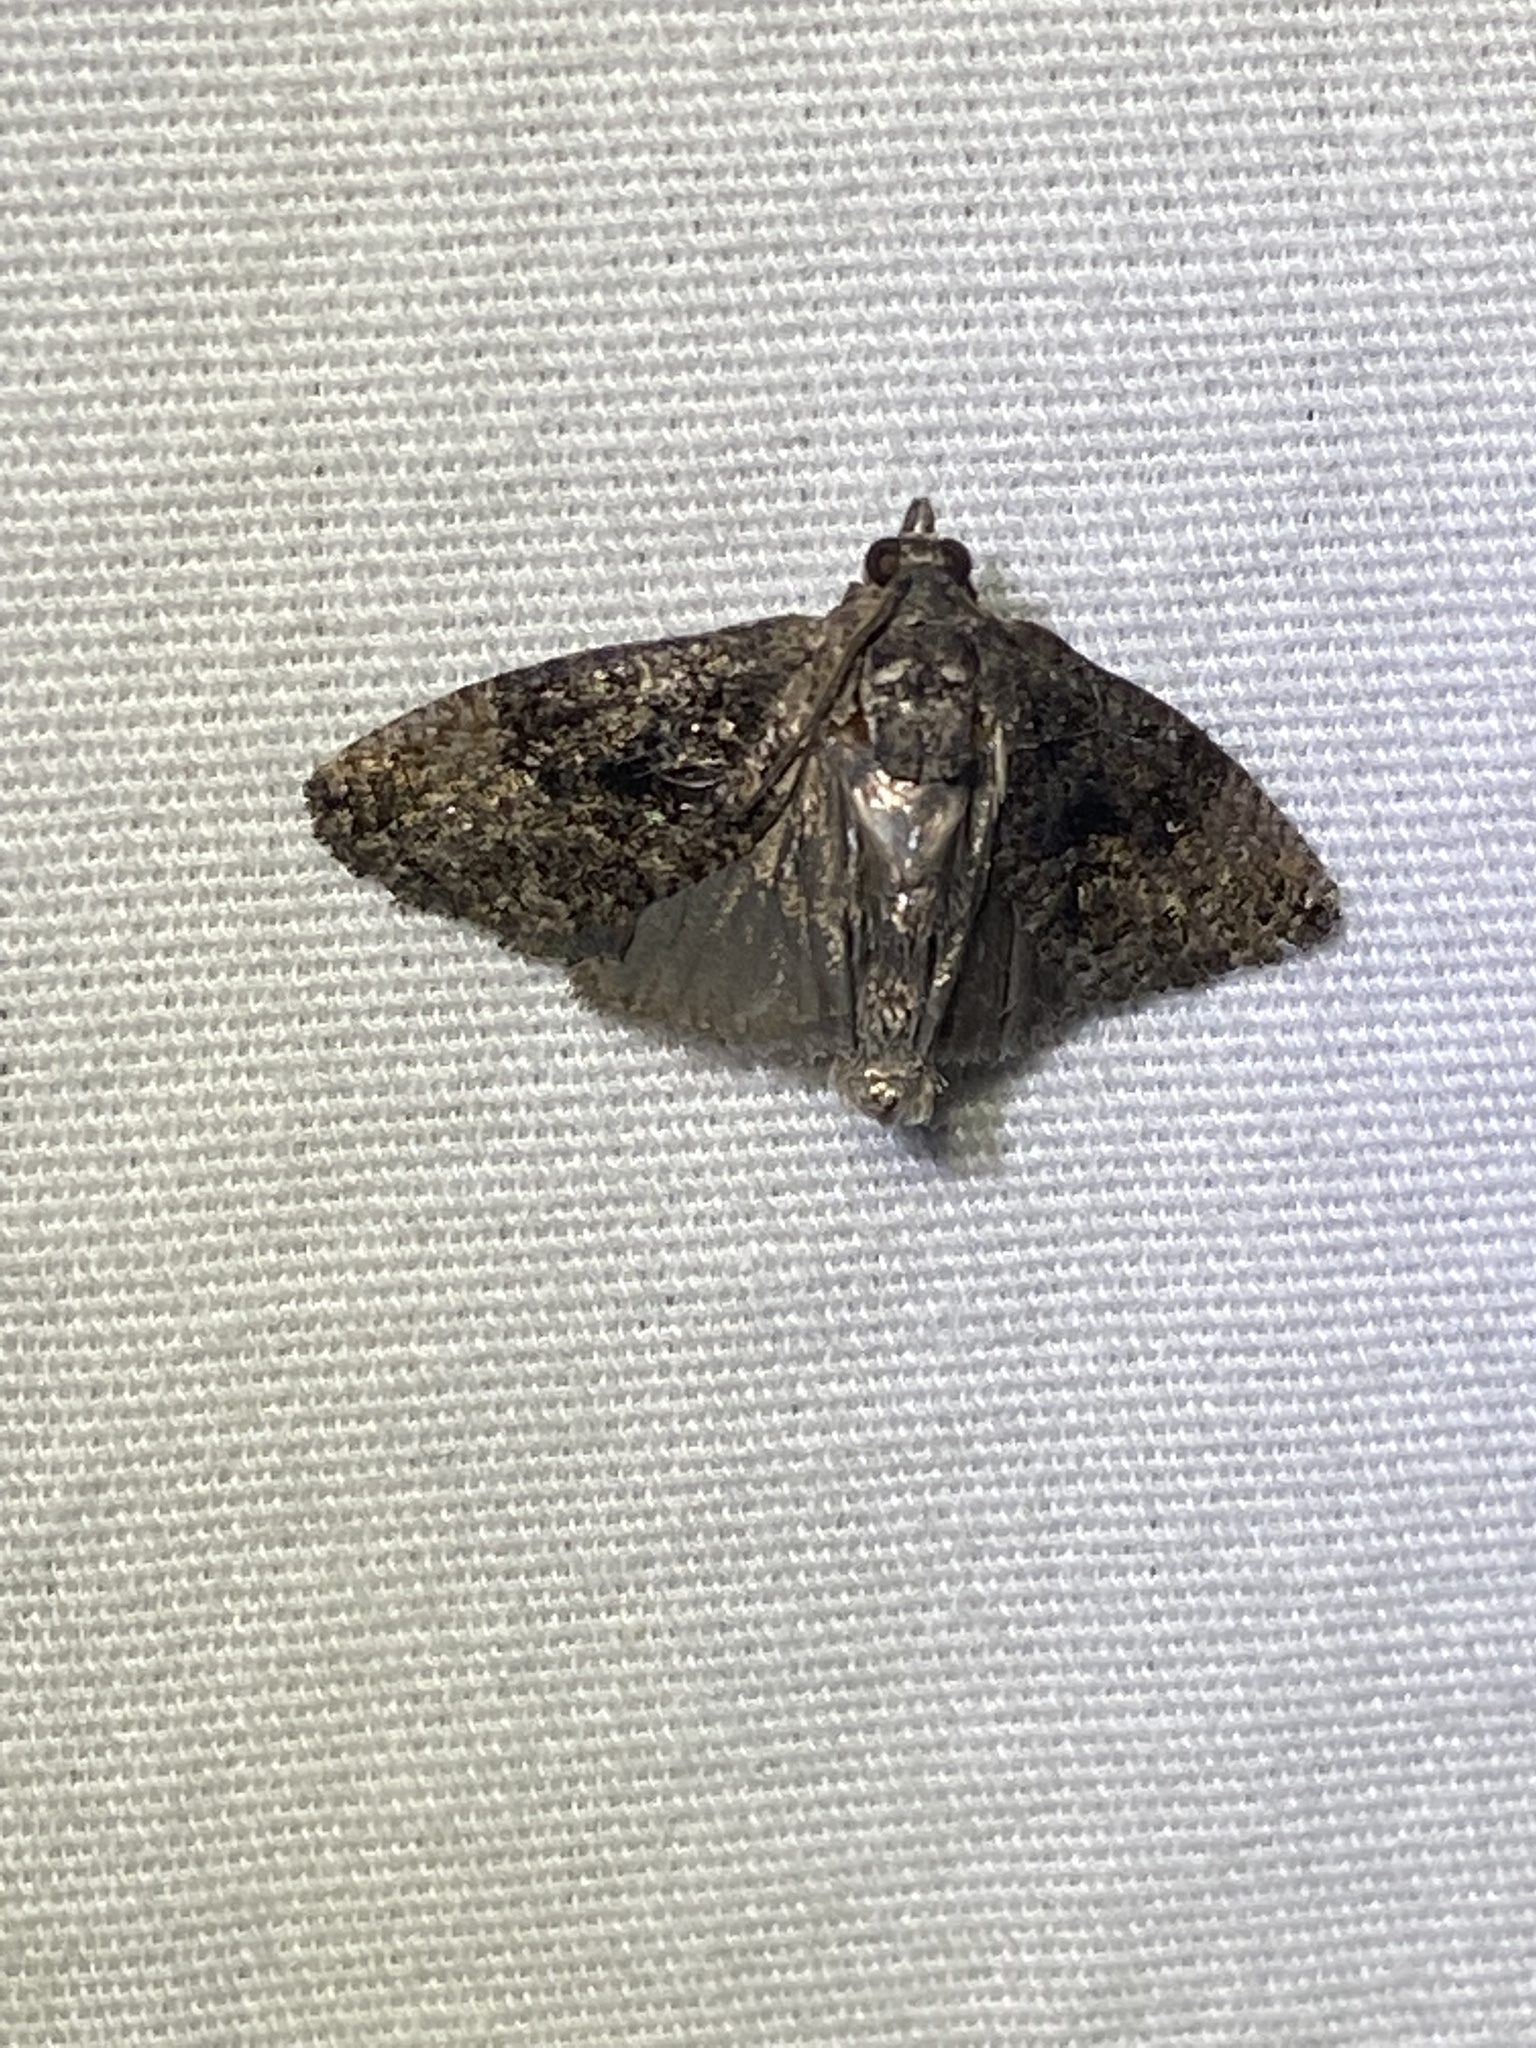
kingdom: Animalia
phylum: Arthropoda
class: Insecta
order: Lepidoptera
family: Tortricidae
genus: Gymnandrosoma
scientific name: Gymnandrosoma punctidiscanum
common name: Dotted ecdytolopha moth
